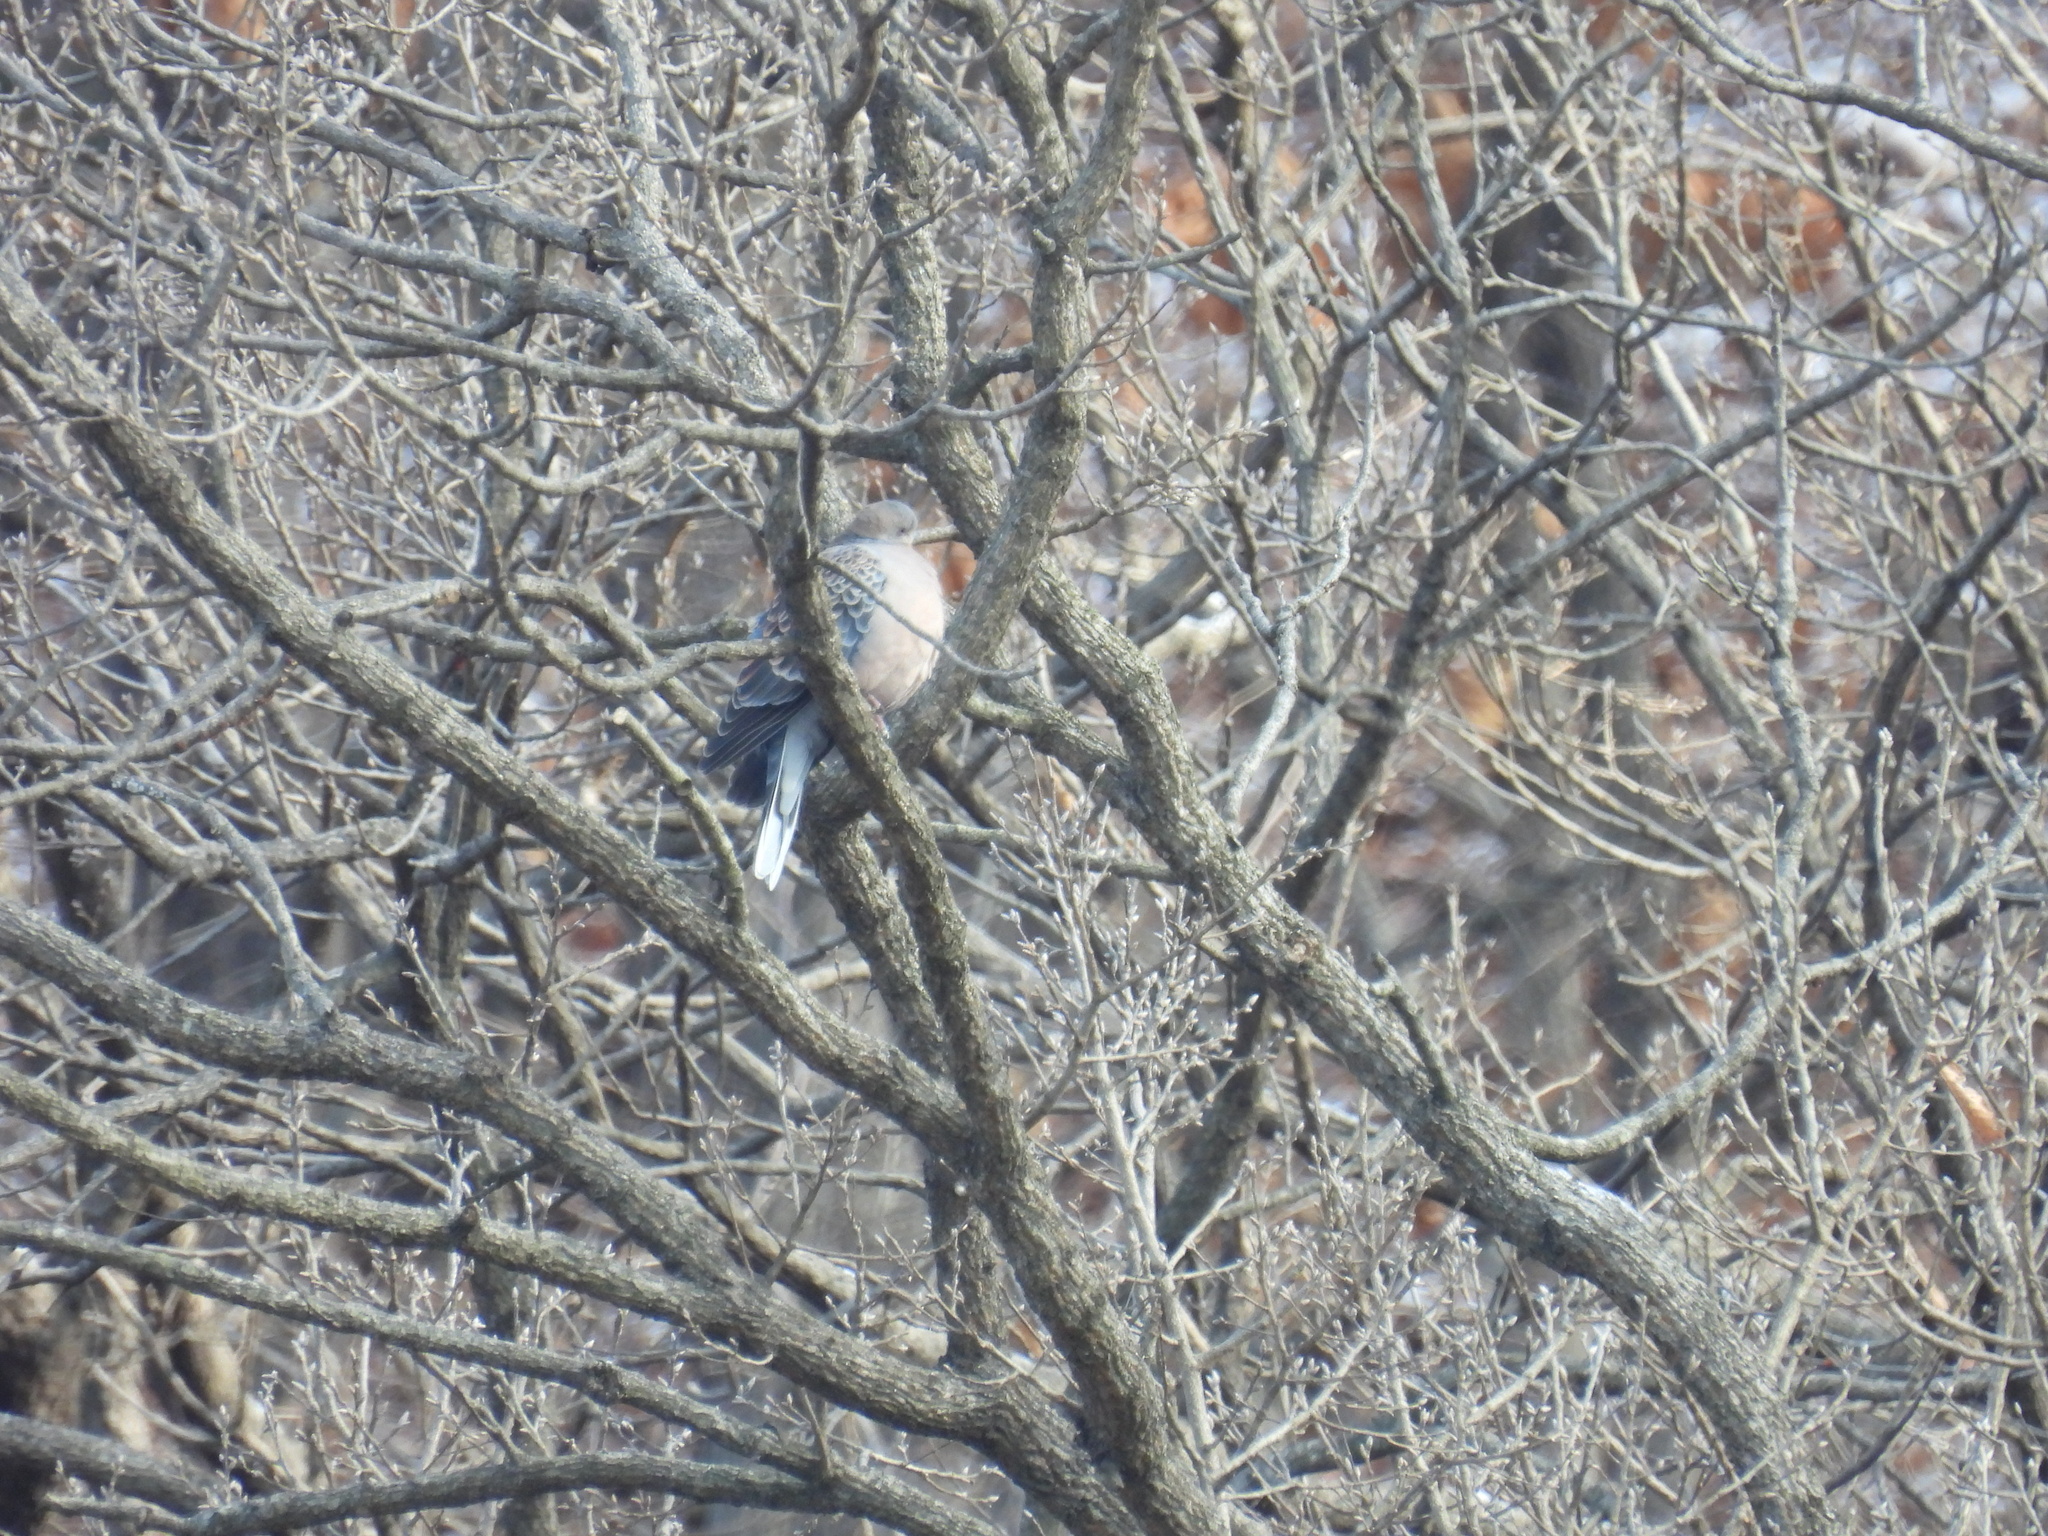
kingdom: Animalia
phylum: Chordata
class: Aves
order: Columbiformes
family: Columbidae
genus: Streptopelia
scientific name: Streptopelia orientalis
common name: Oriental turtle dove
